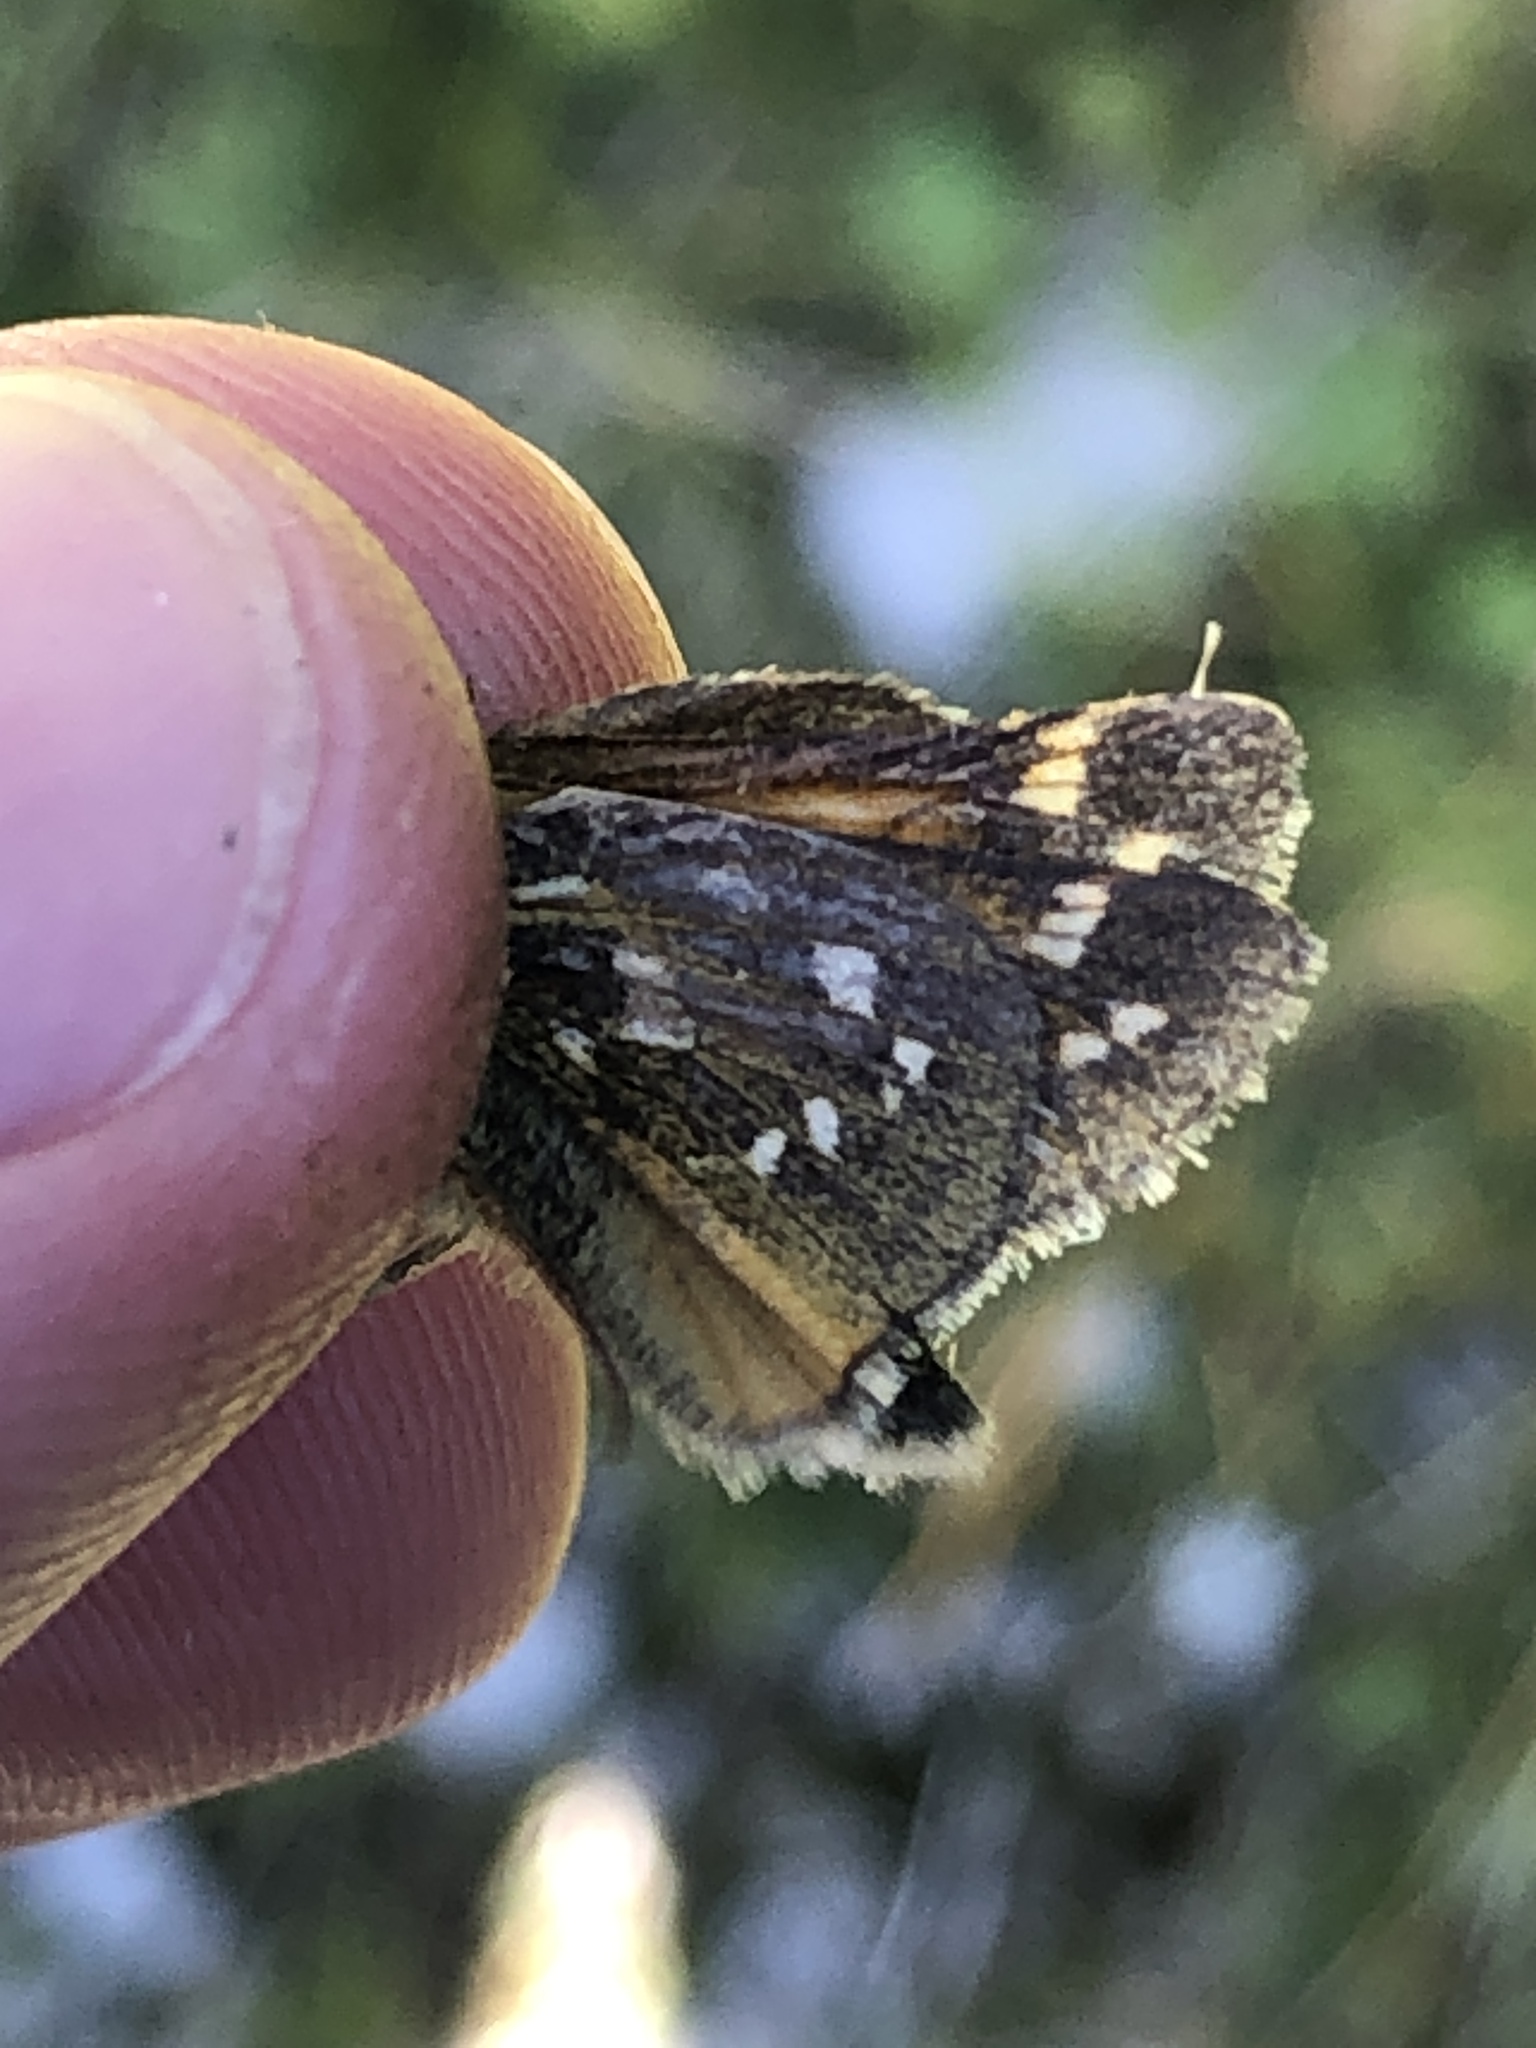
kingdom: Animalia
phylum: Arthropoda
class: Insecta
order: Lepidoptera
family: Hesperiidae
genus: Hesperia
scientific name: Hesperia comma
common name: Common branded skipper
